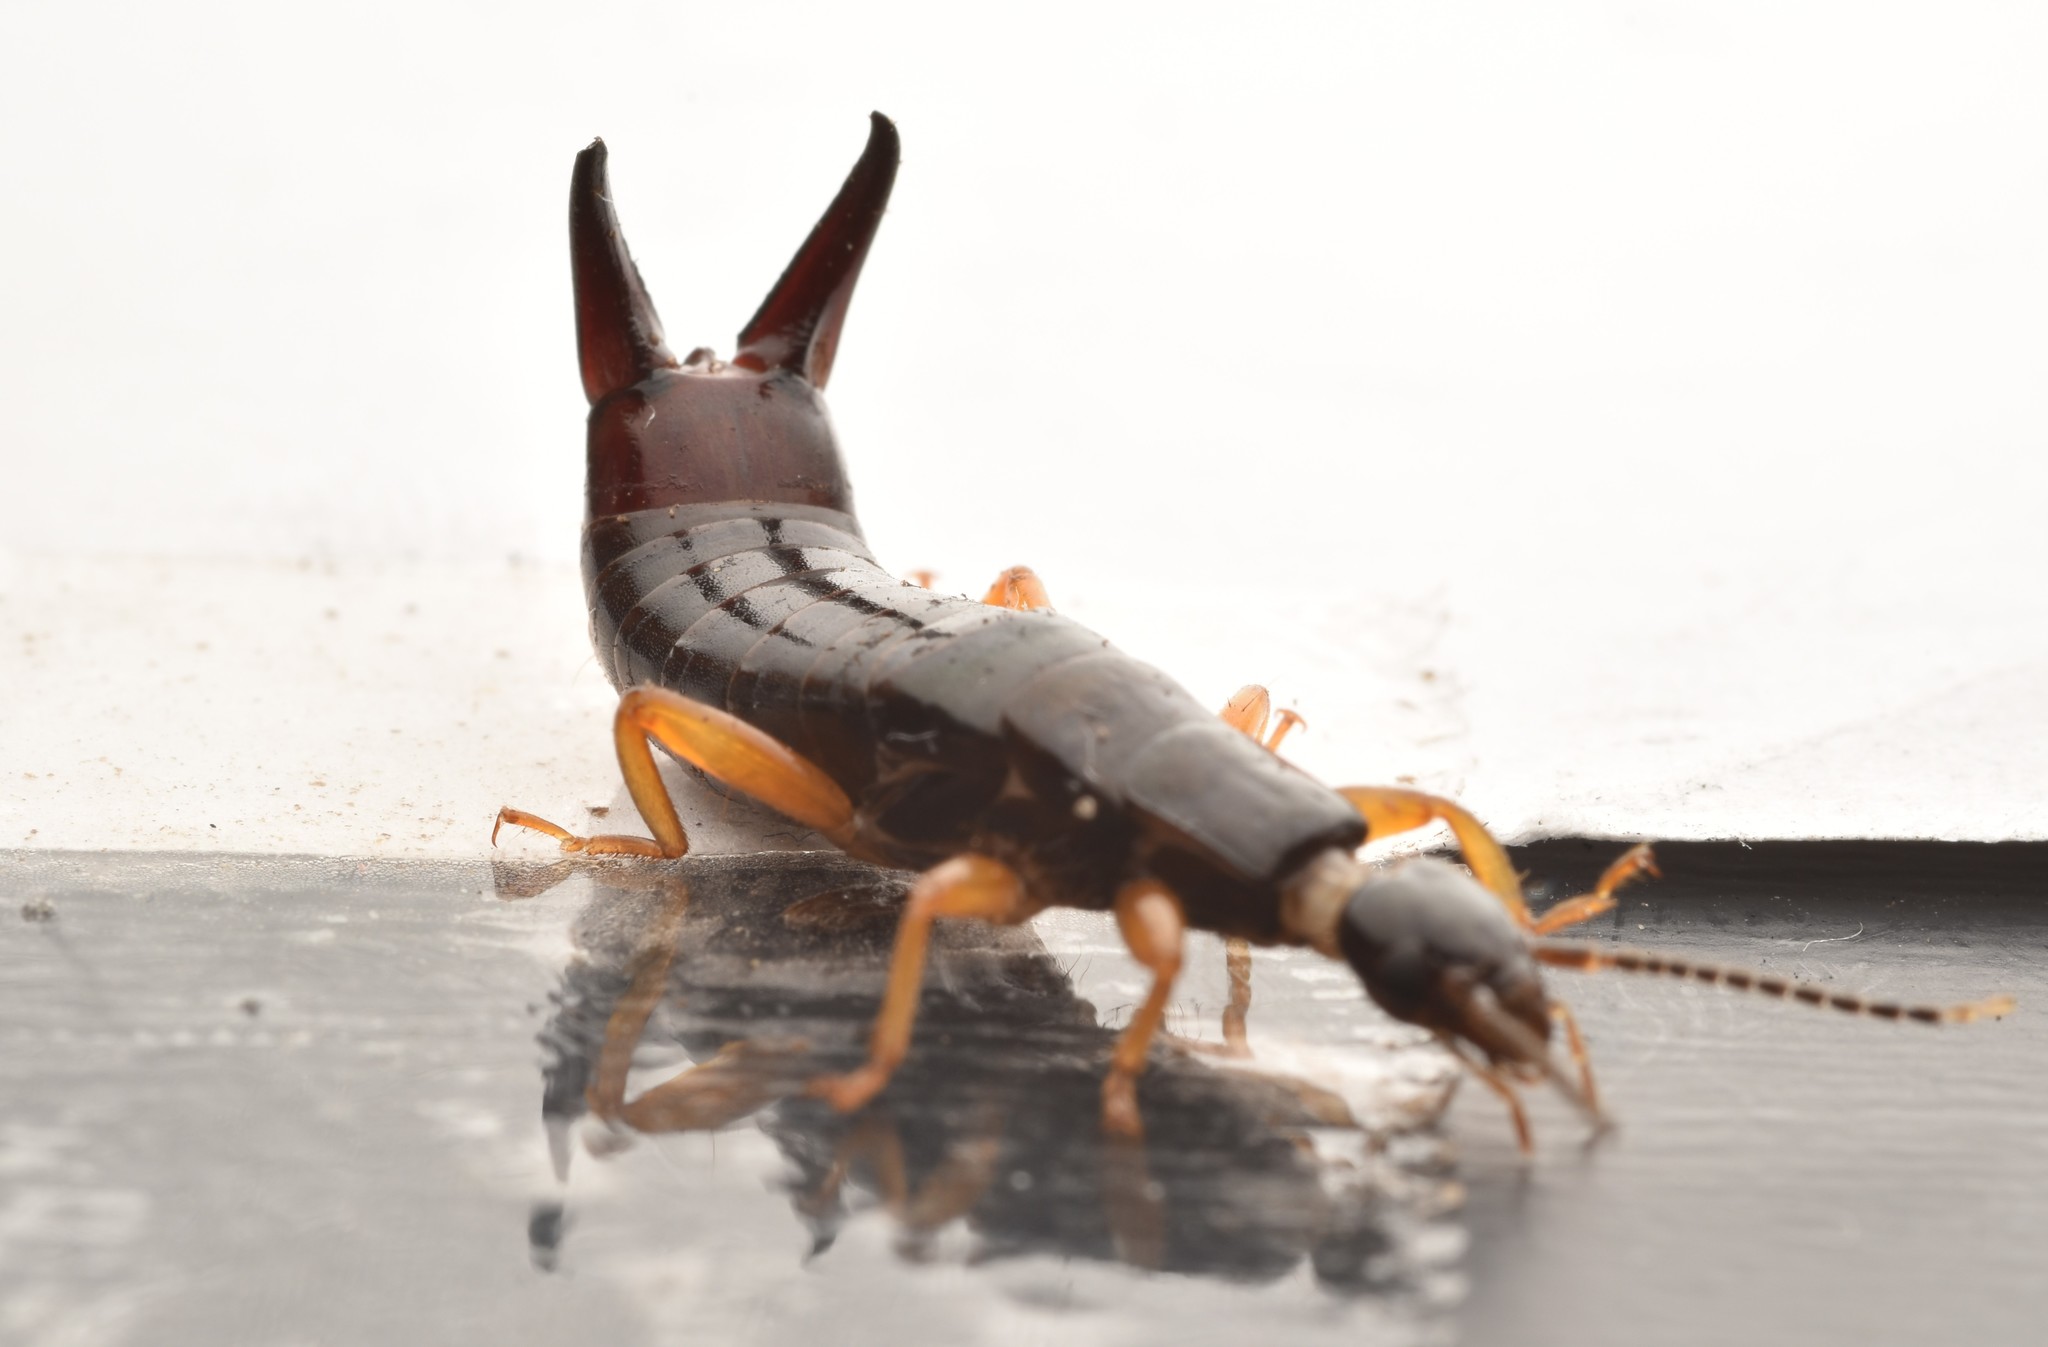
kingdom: Animalia
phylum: Arthropoda
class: Insecta
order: Dermaptera
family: Anisolabididae
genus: Euborellia
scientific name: Euborellia arcanum
